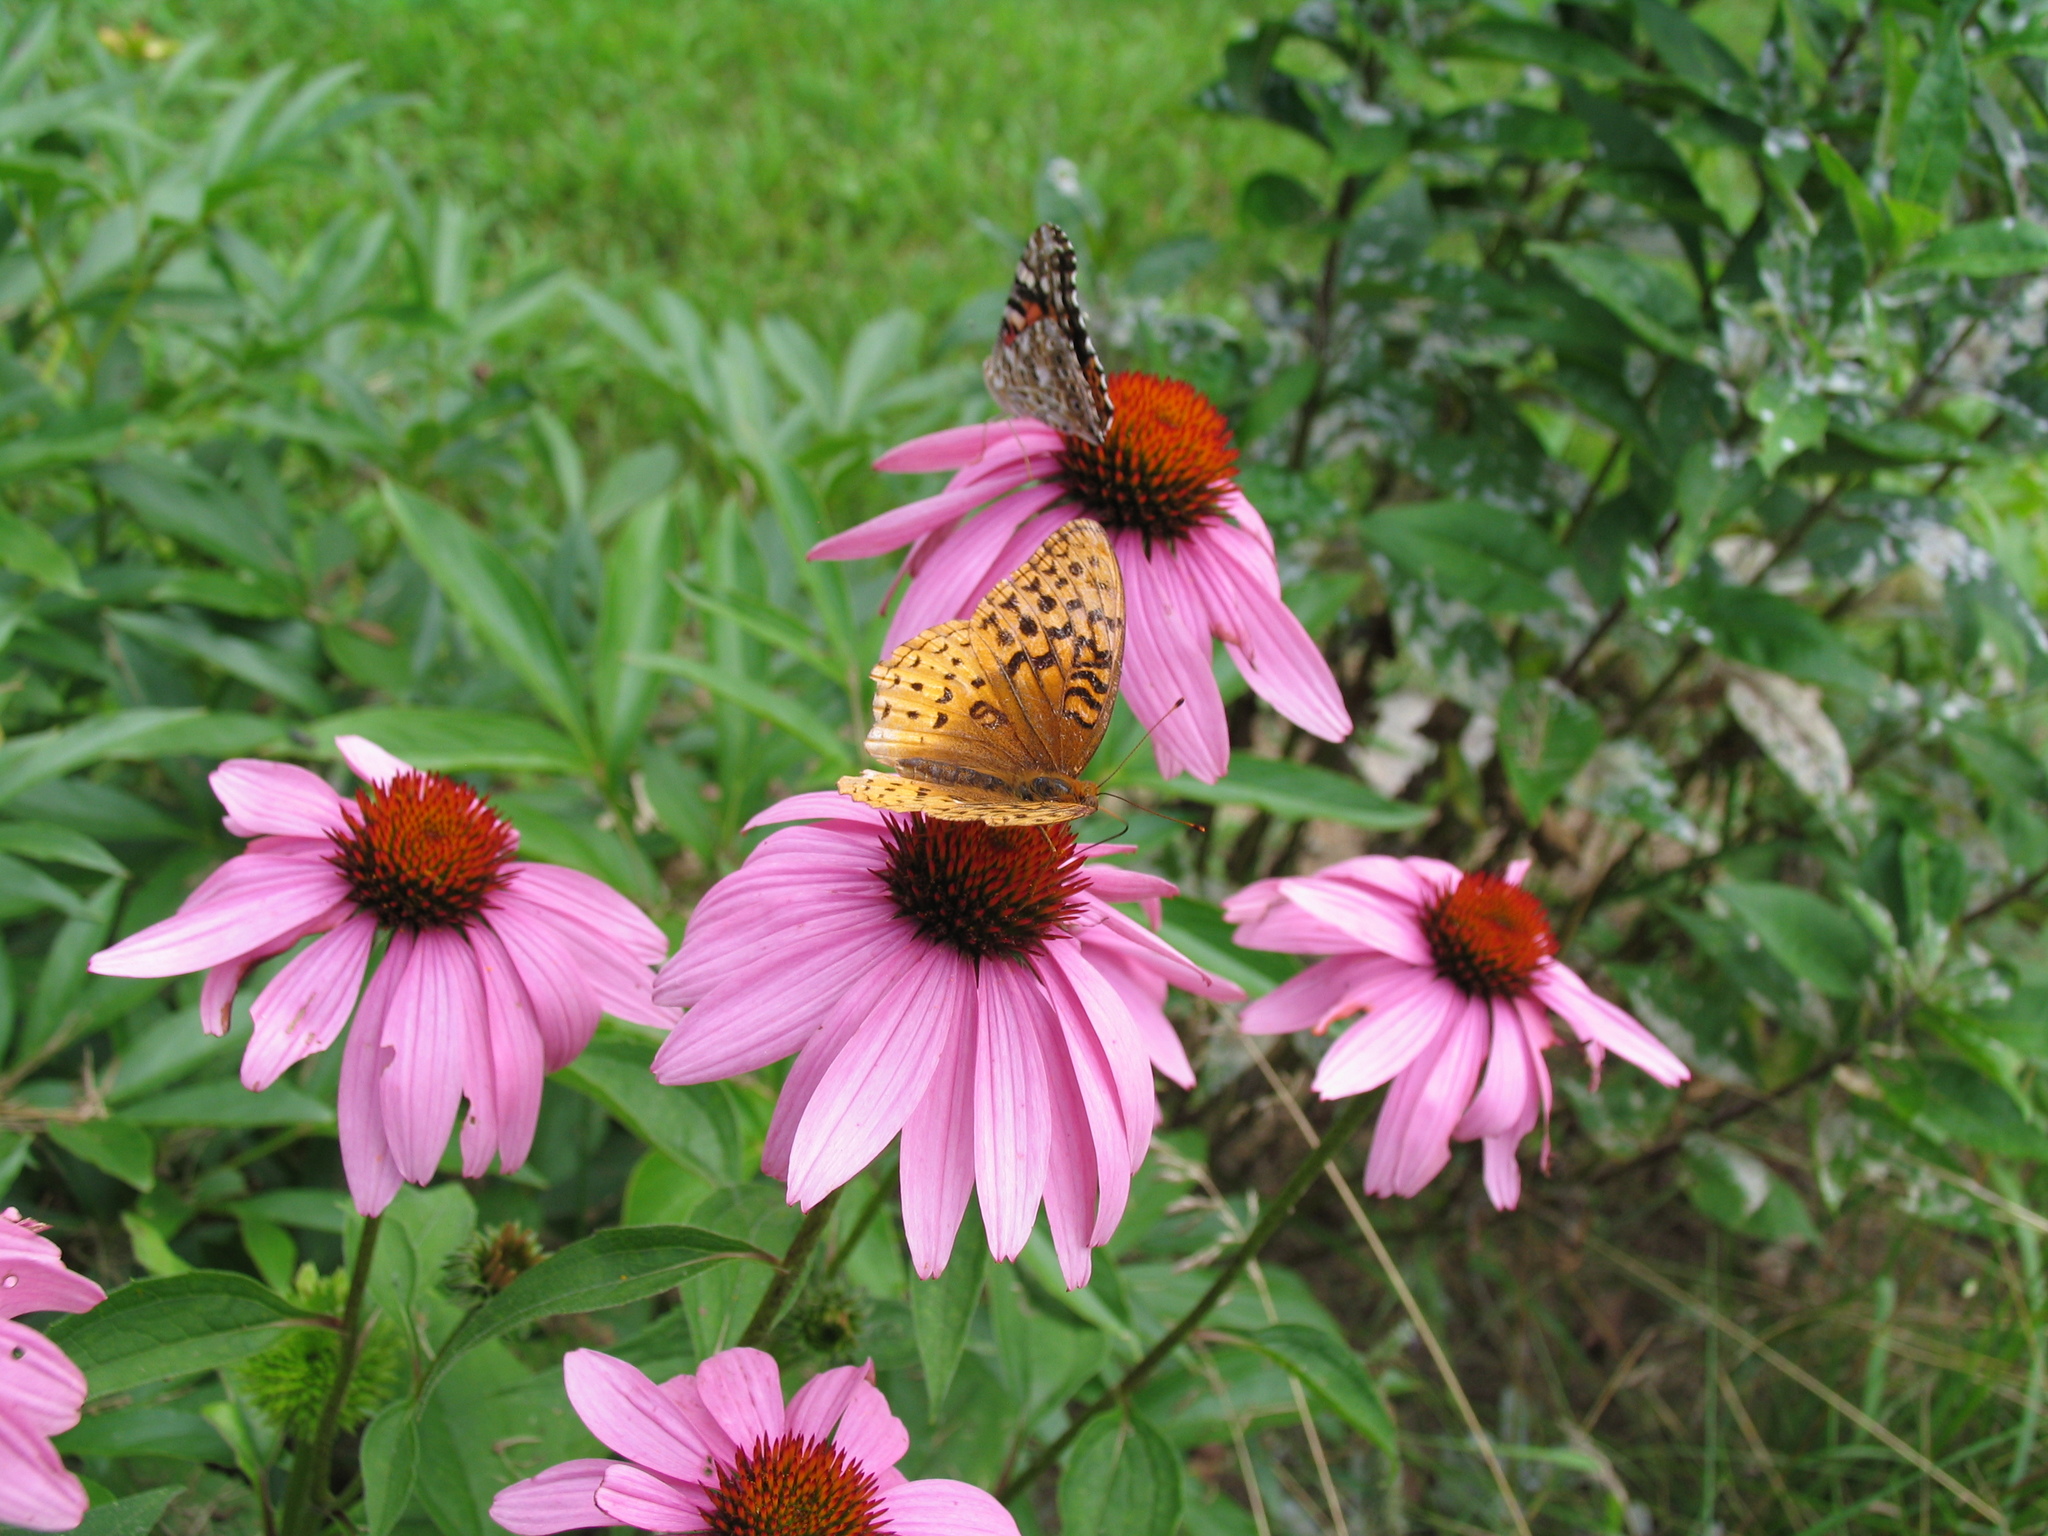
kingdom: Animalia
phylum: Arthropoda
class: Insecta
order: Lepidoptera
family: Nymphalidae
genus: Speyeria
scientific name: Speyeria cybele
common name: Great spangled fritillary
